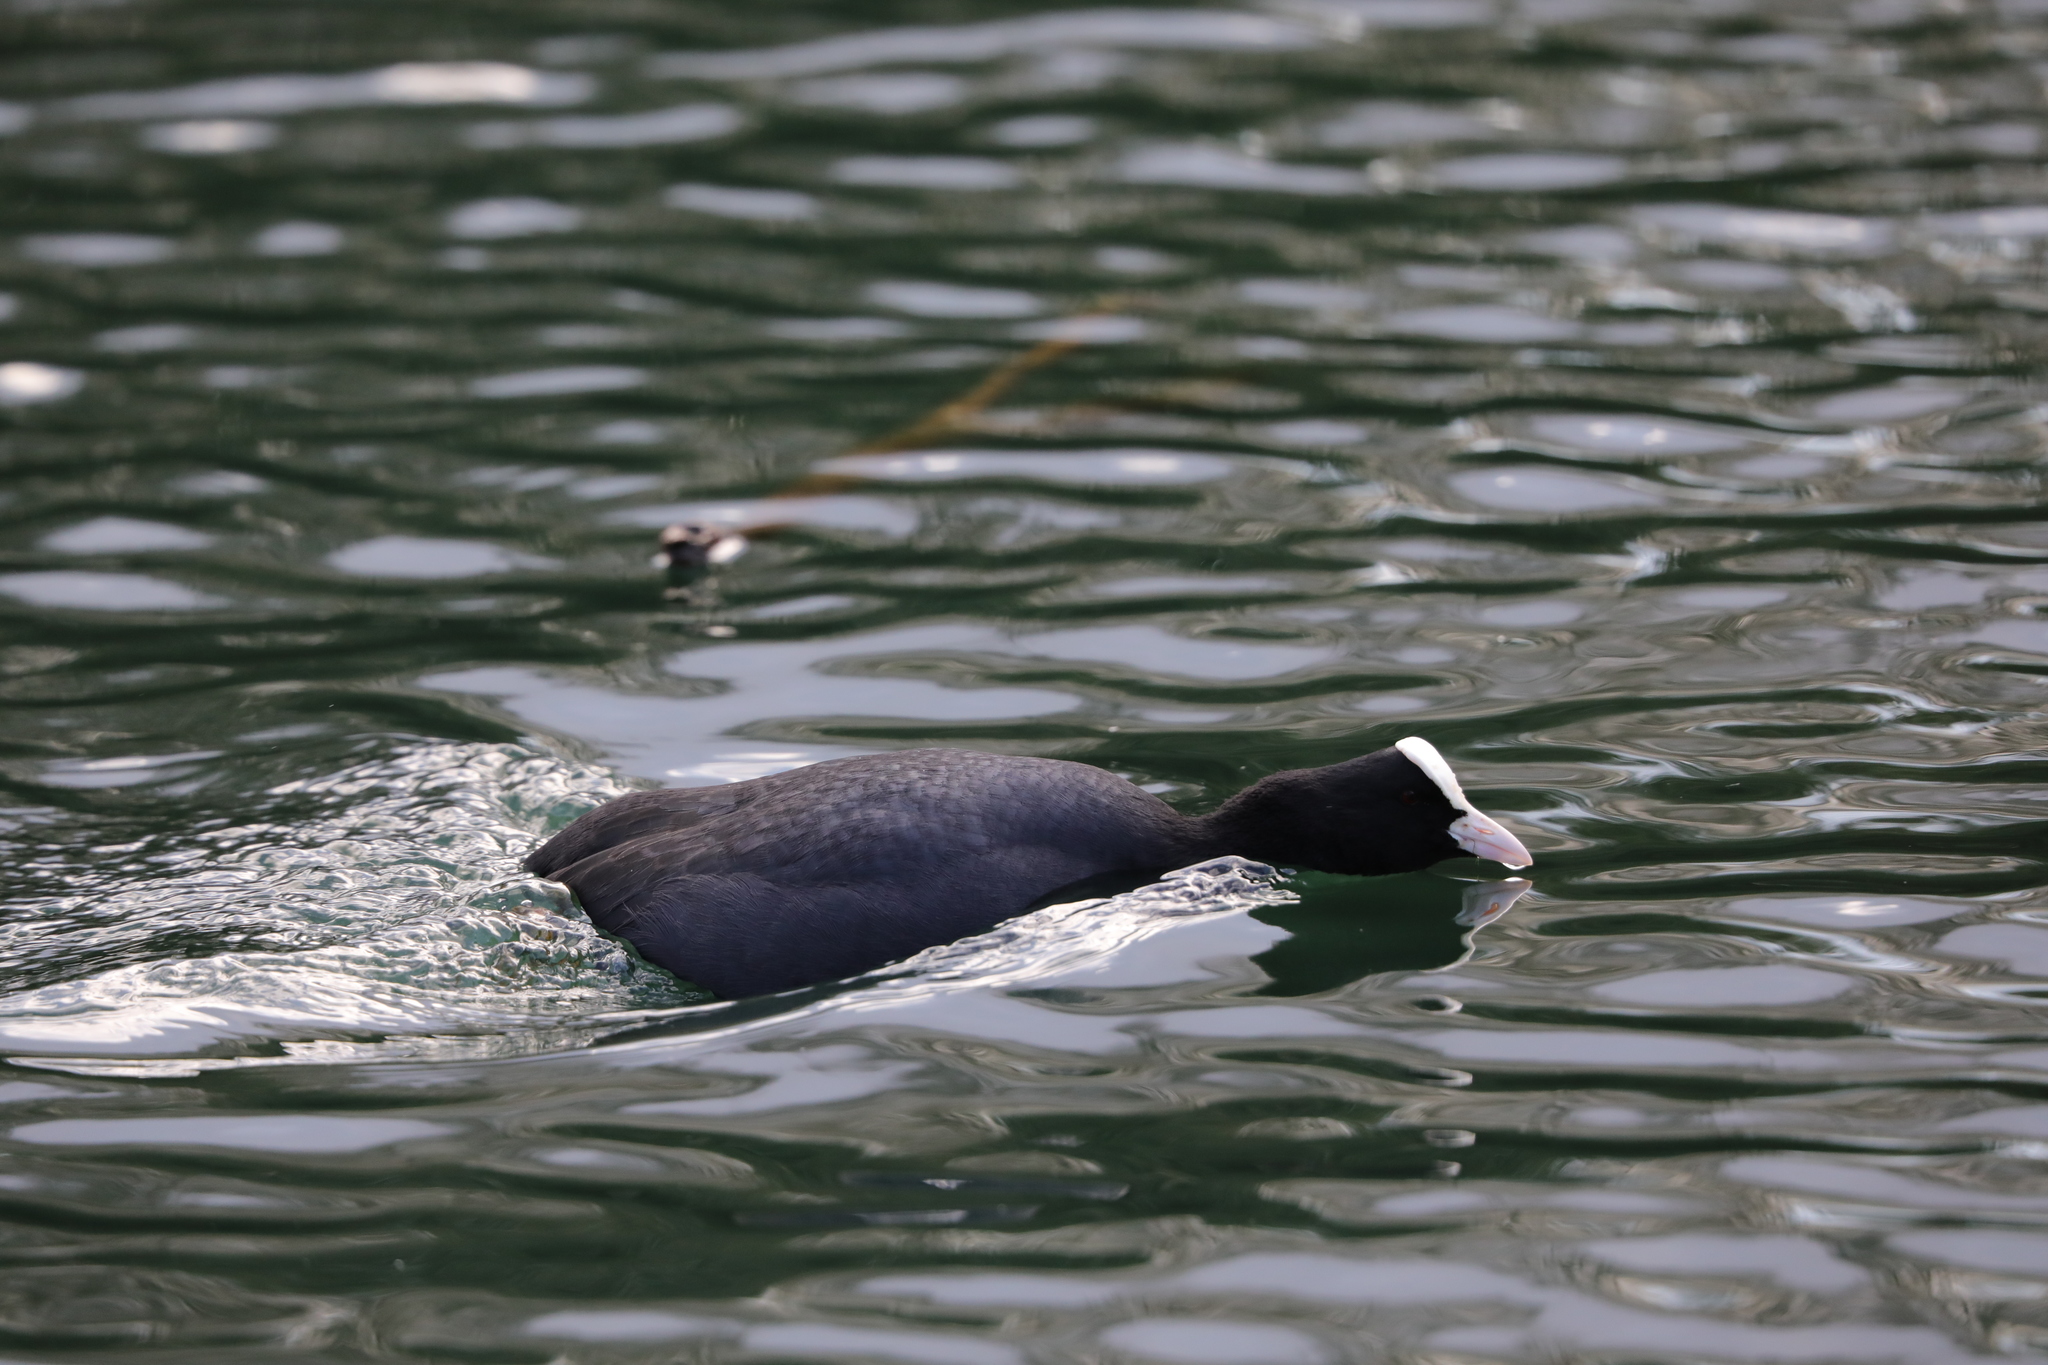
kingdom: Animalia
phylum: Chordata
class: Aves
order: Gruiformes
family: Rallidae
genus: Fulica
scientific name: Fulica atra
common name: Eurasian coot
